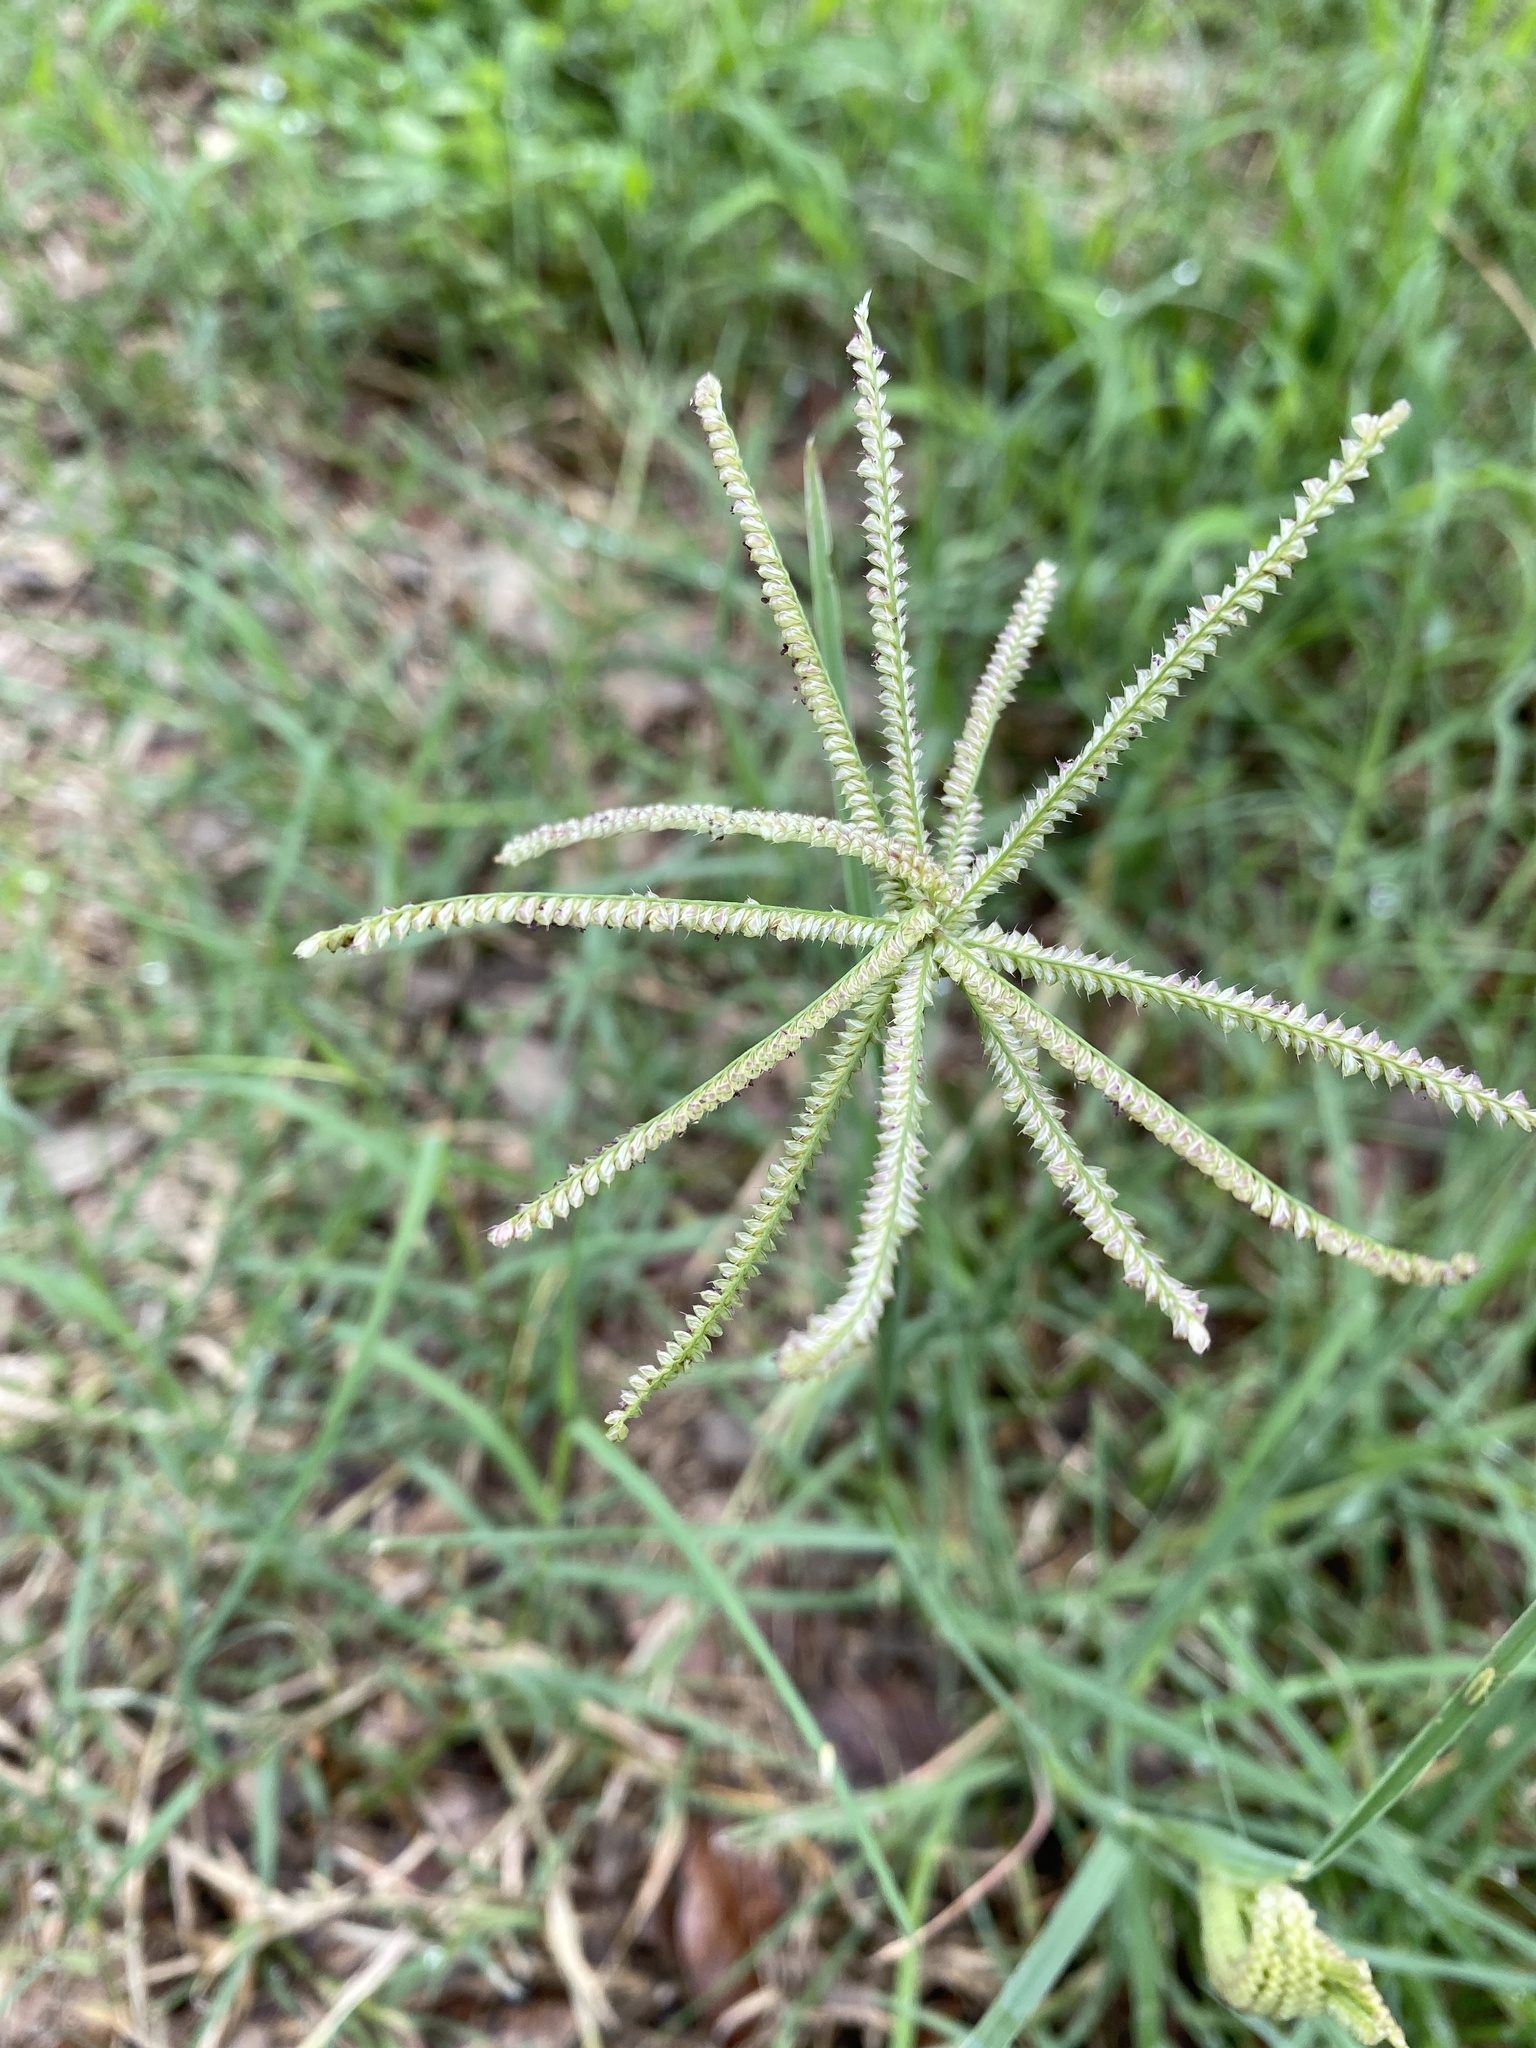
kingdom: Plantae
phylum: Tracheophyta
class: Liliopsida
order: Poales
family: Poaceae
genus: Chloris
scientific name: Chloris cucullata
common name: Hooded windmill grass
